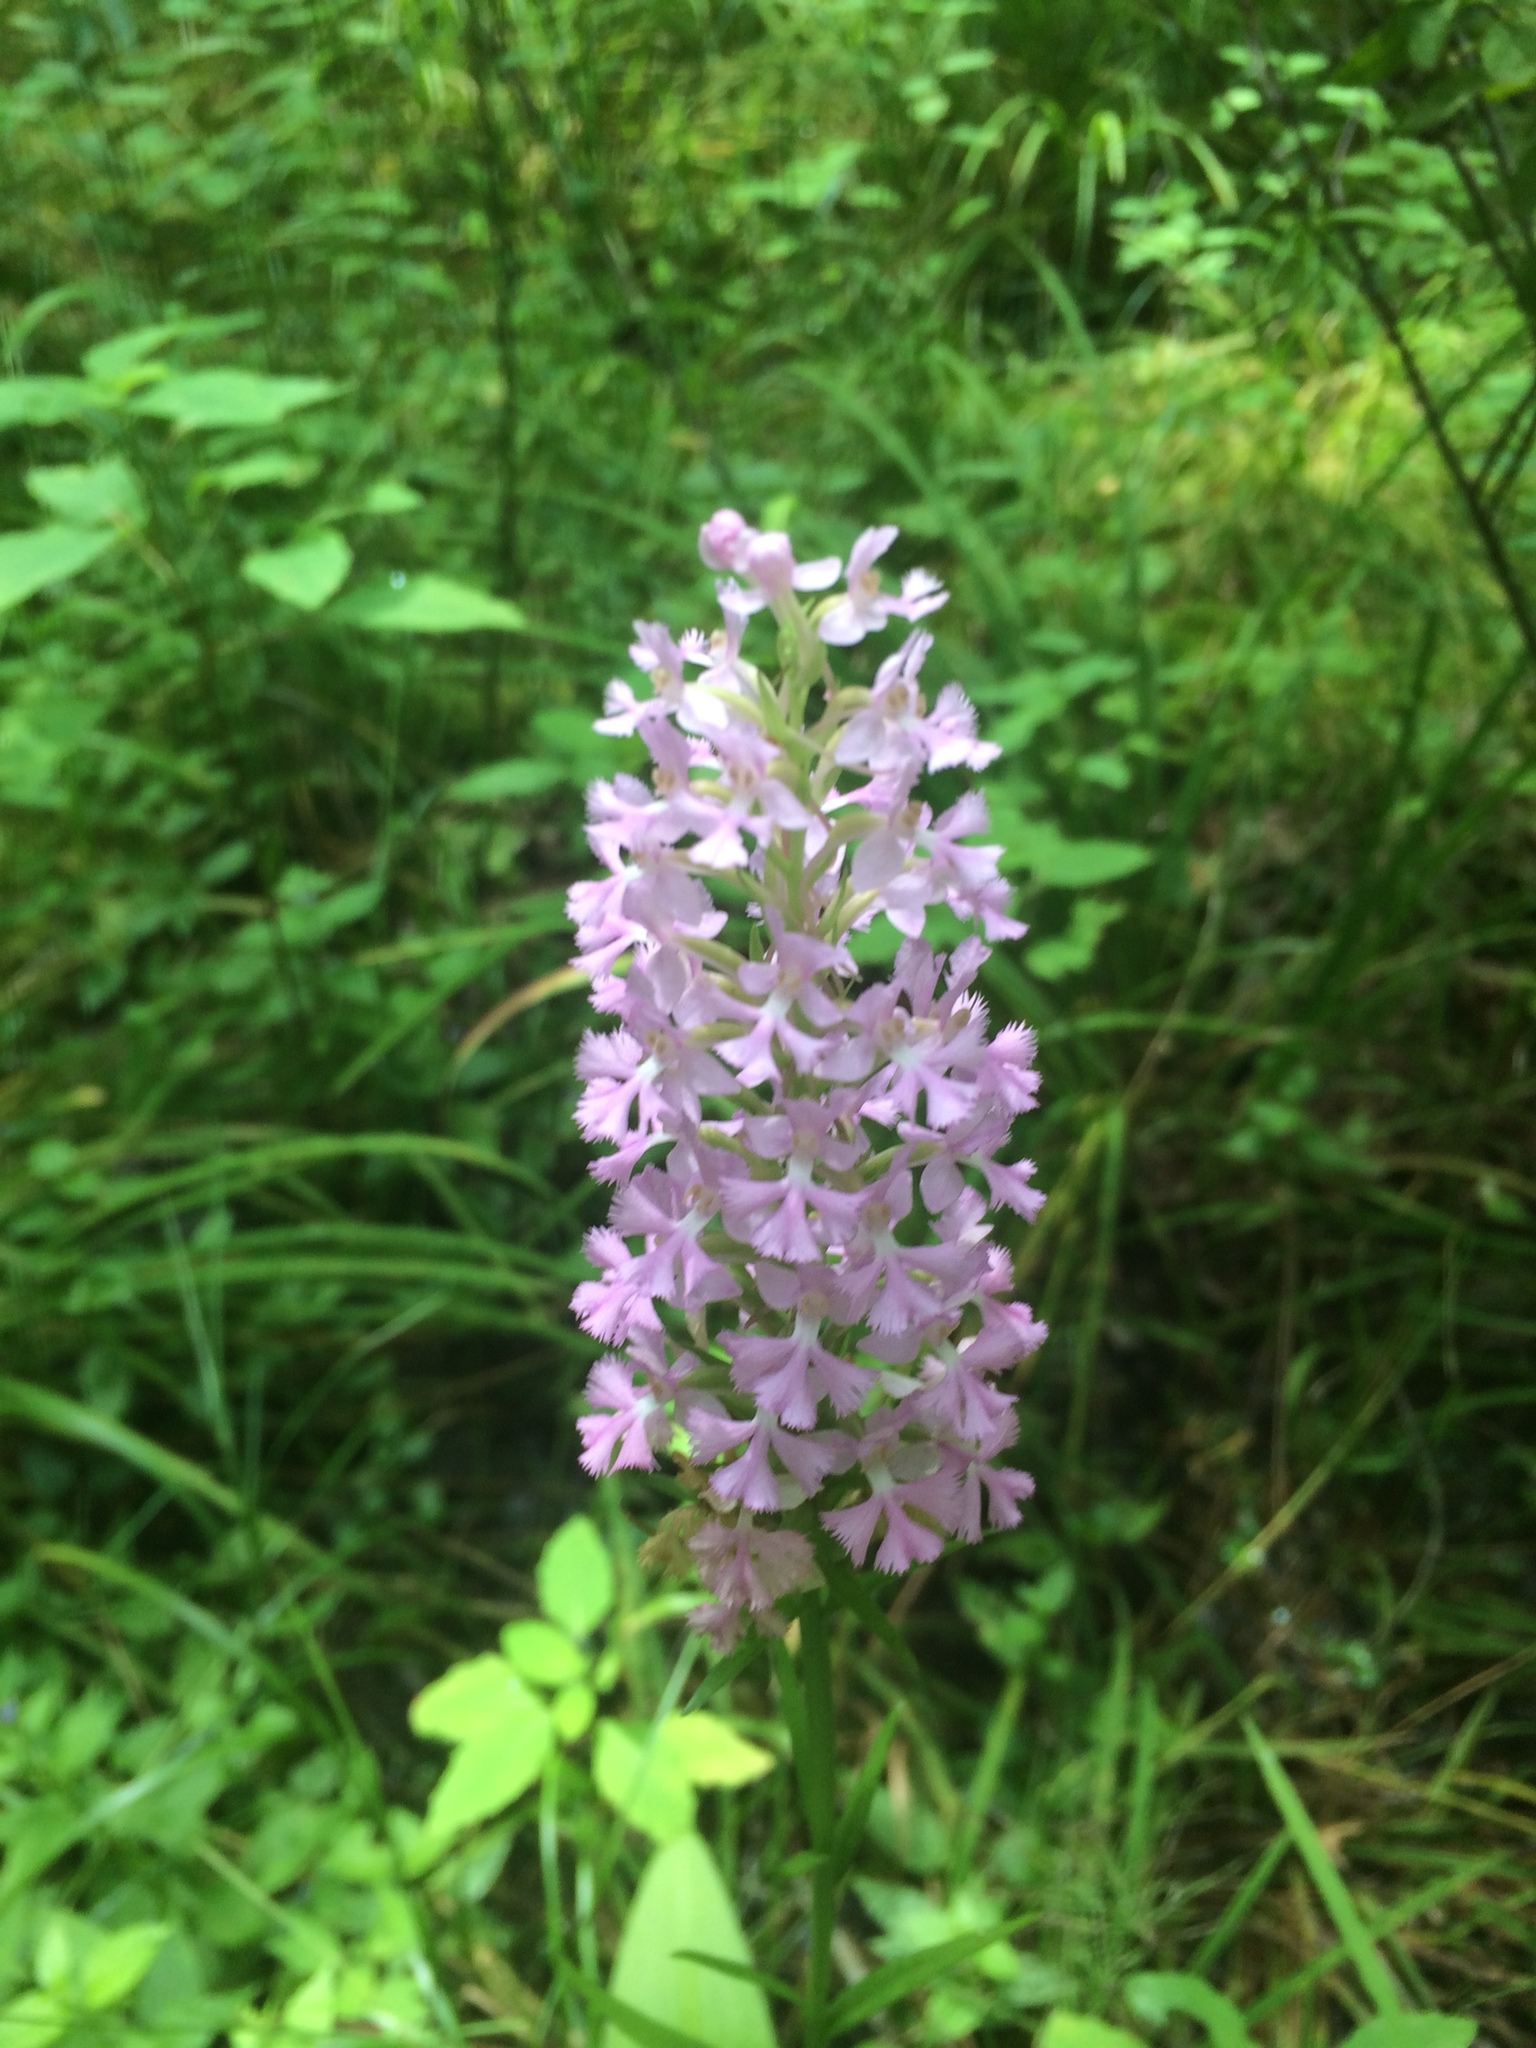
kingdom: Plantae
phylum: Tracheophyta
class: Liliopsida
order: Asparagales
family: Orchidaceae
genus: Platanthera
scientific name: Platanthera psycodes
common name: Lesser purple fringed orchid
